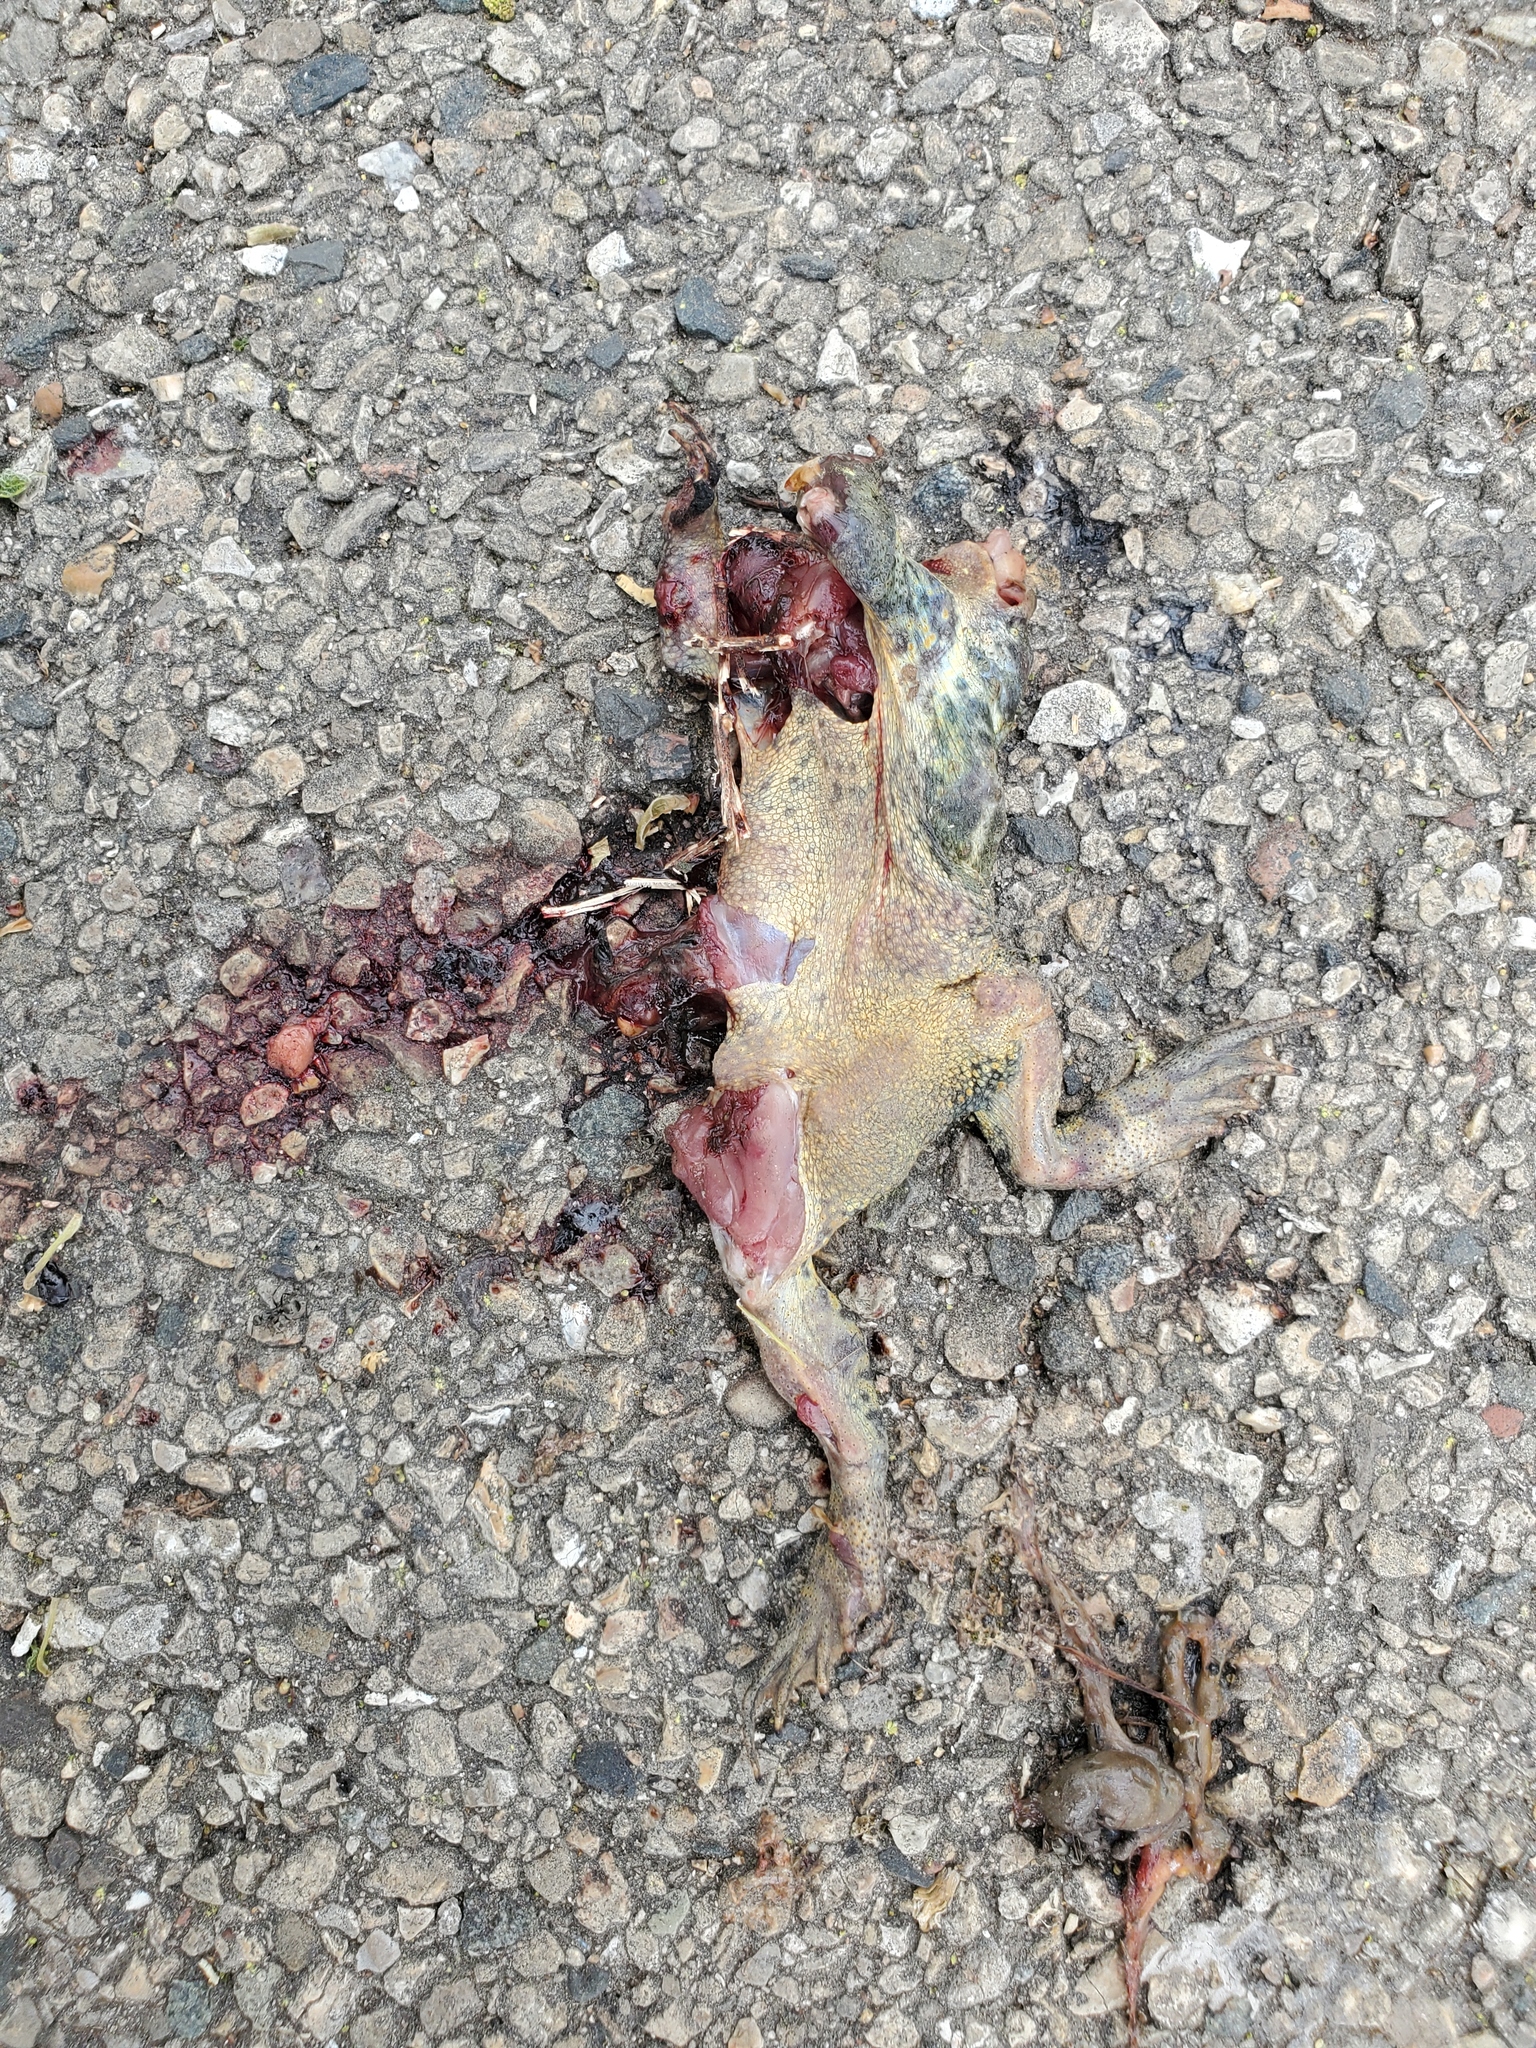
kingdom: Animalia
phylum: Chordata
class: Amphibia
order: Anura
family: Bufonidae
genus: Anaxyrus
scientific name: Anaxyrus americanus
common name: American toad
